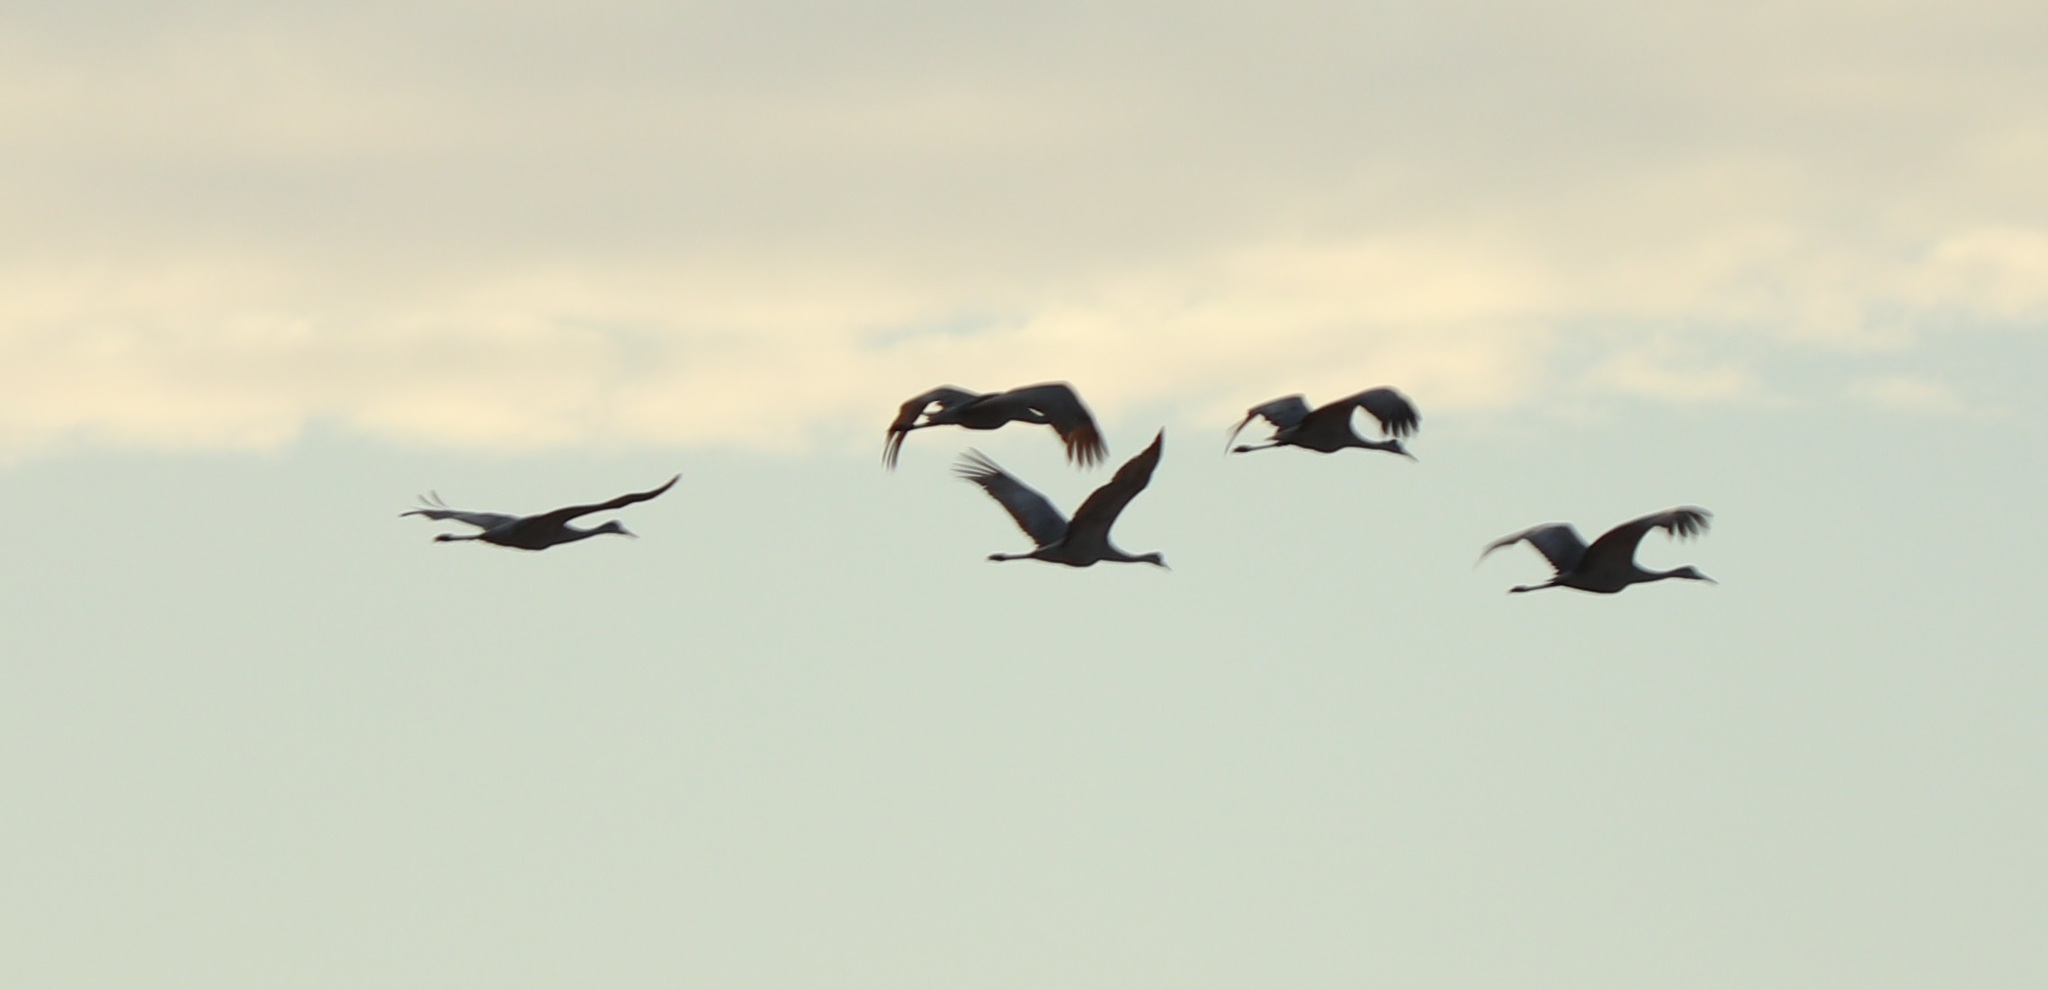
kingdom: Animalia
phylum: Chordata
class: Aves
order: Gruiformes
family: Gruidae
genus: Grus
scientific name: Grus canadensis
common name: Sandhill crane
